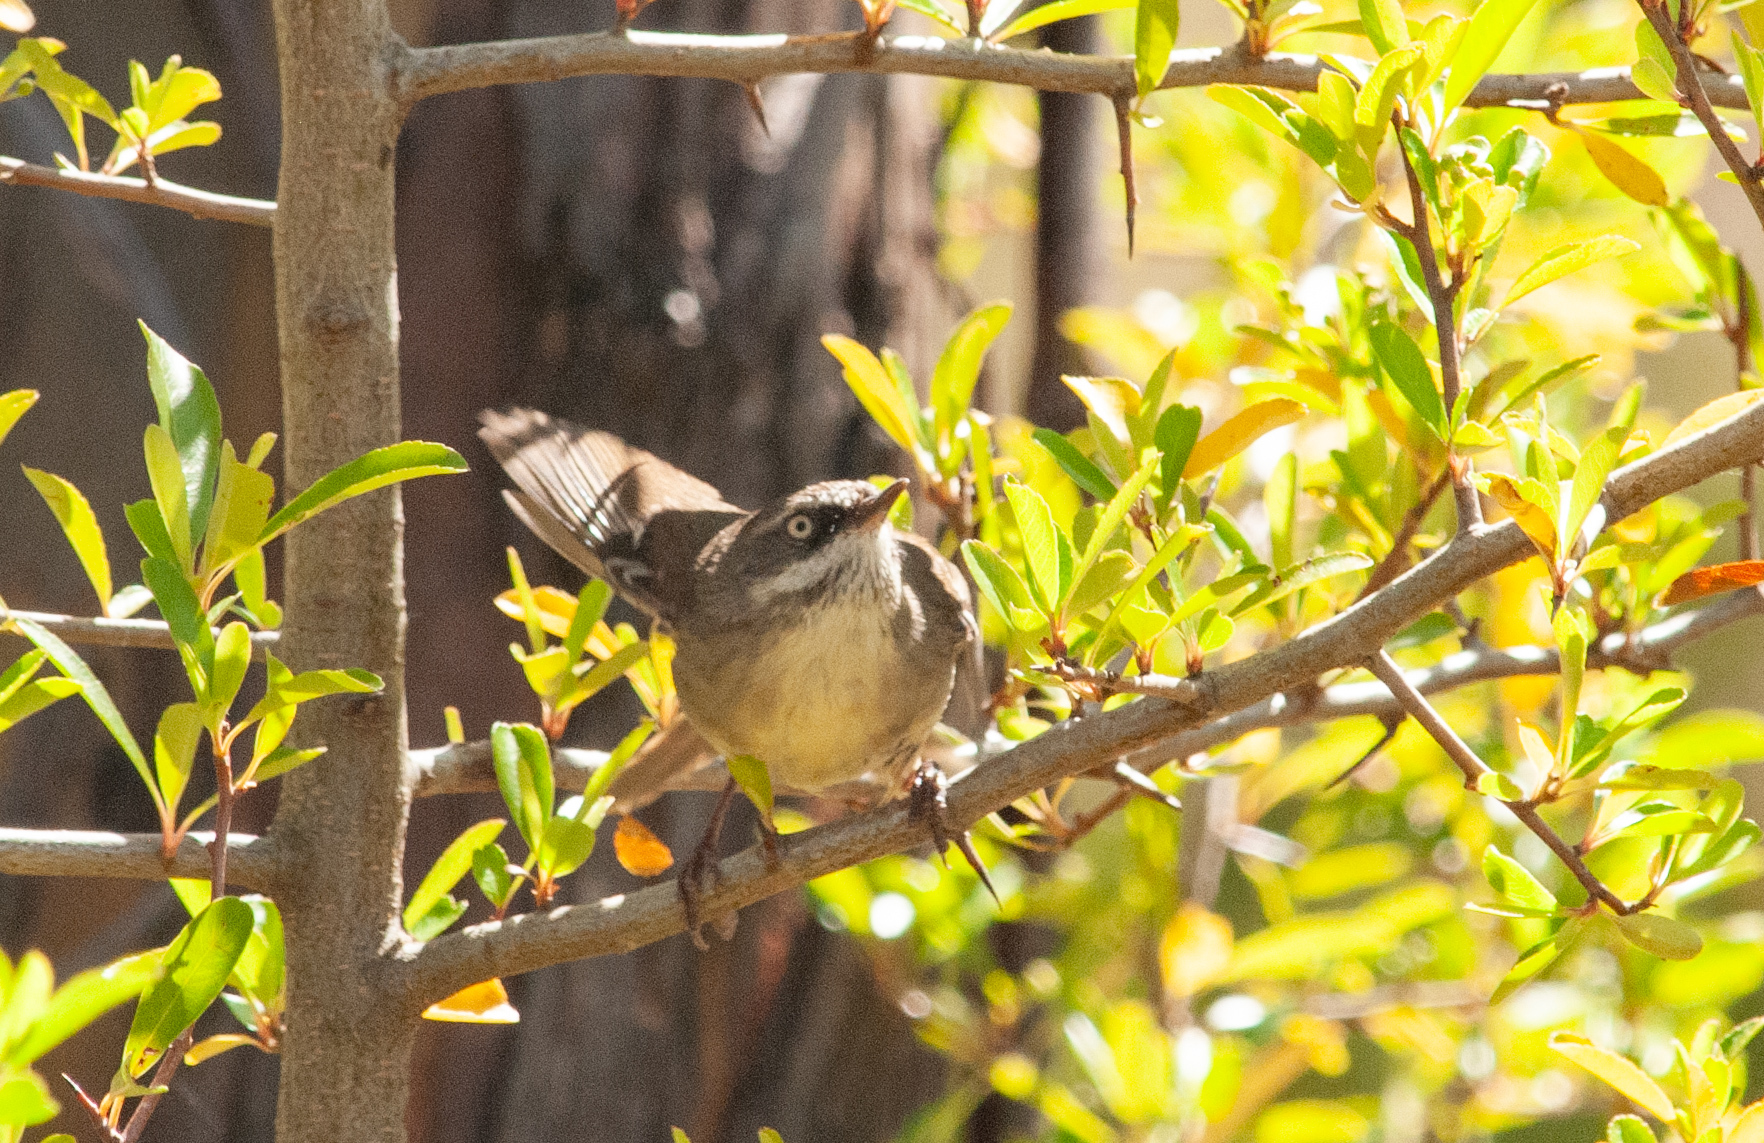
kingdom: Animalia
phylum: Chordata
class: Aves
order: Passeriformes
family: Acanthizidae
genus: Sericornis
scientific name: Sericornis frontalis
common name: White-browed scrubwren
